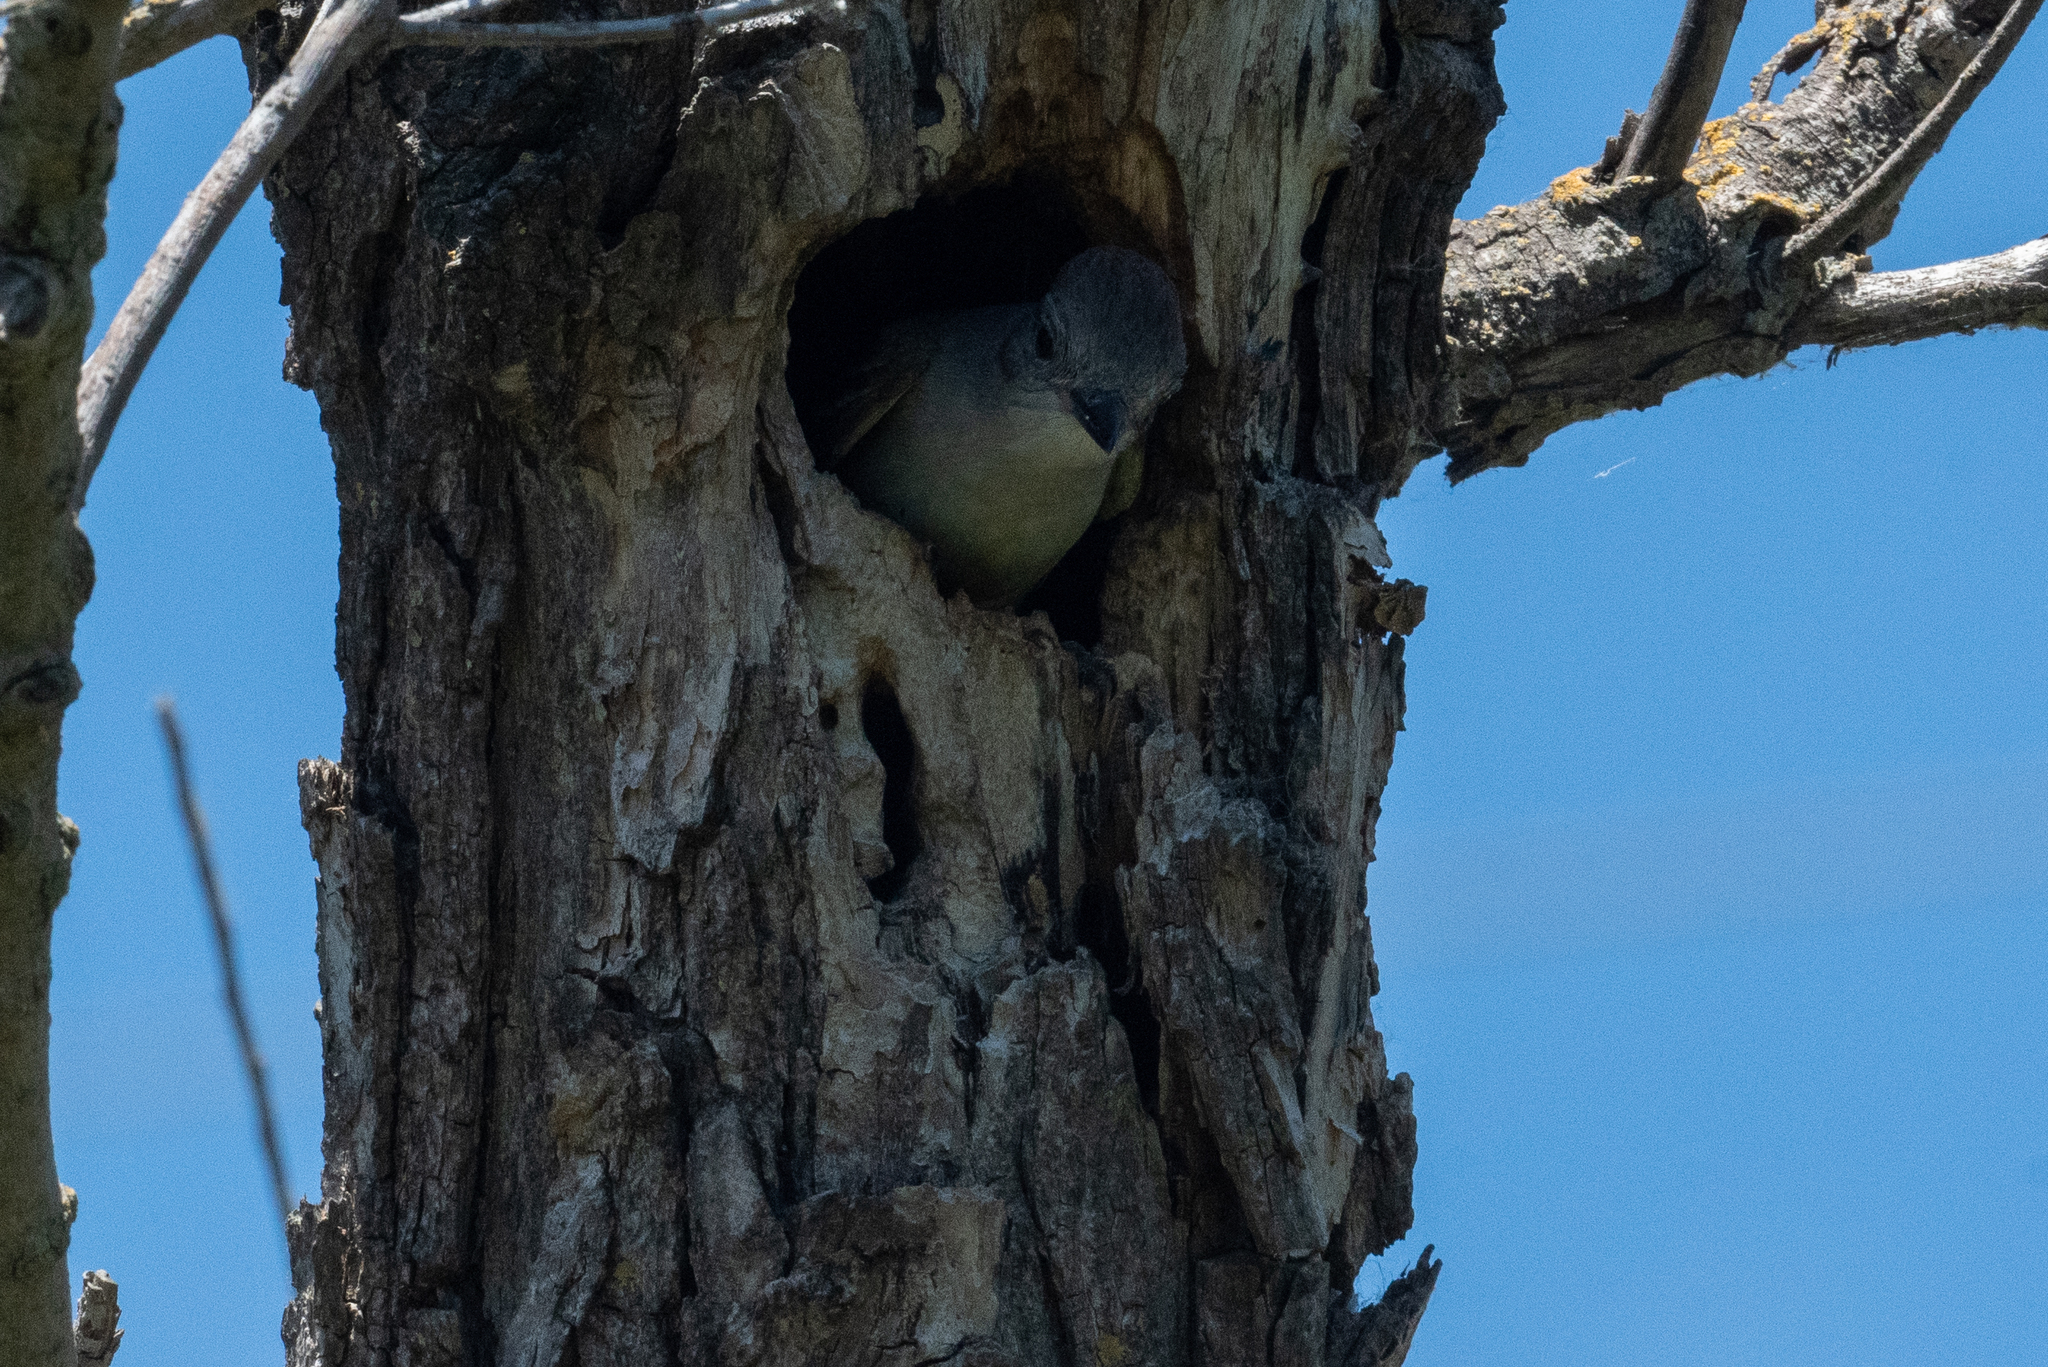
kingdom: Animalia
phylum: Chordata
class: Aves
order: Passeriformes
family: Tyrannidae
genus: Myiarchus
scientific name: Myiarchus cinerascens
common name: Ash-throated flycatcher
